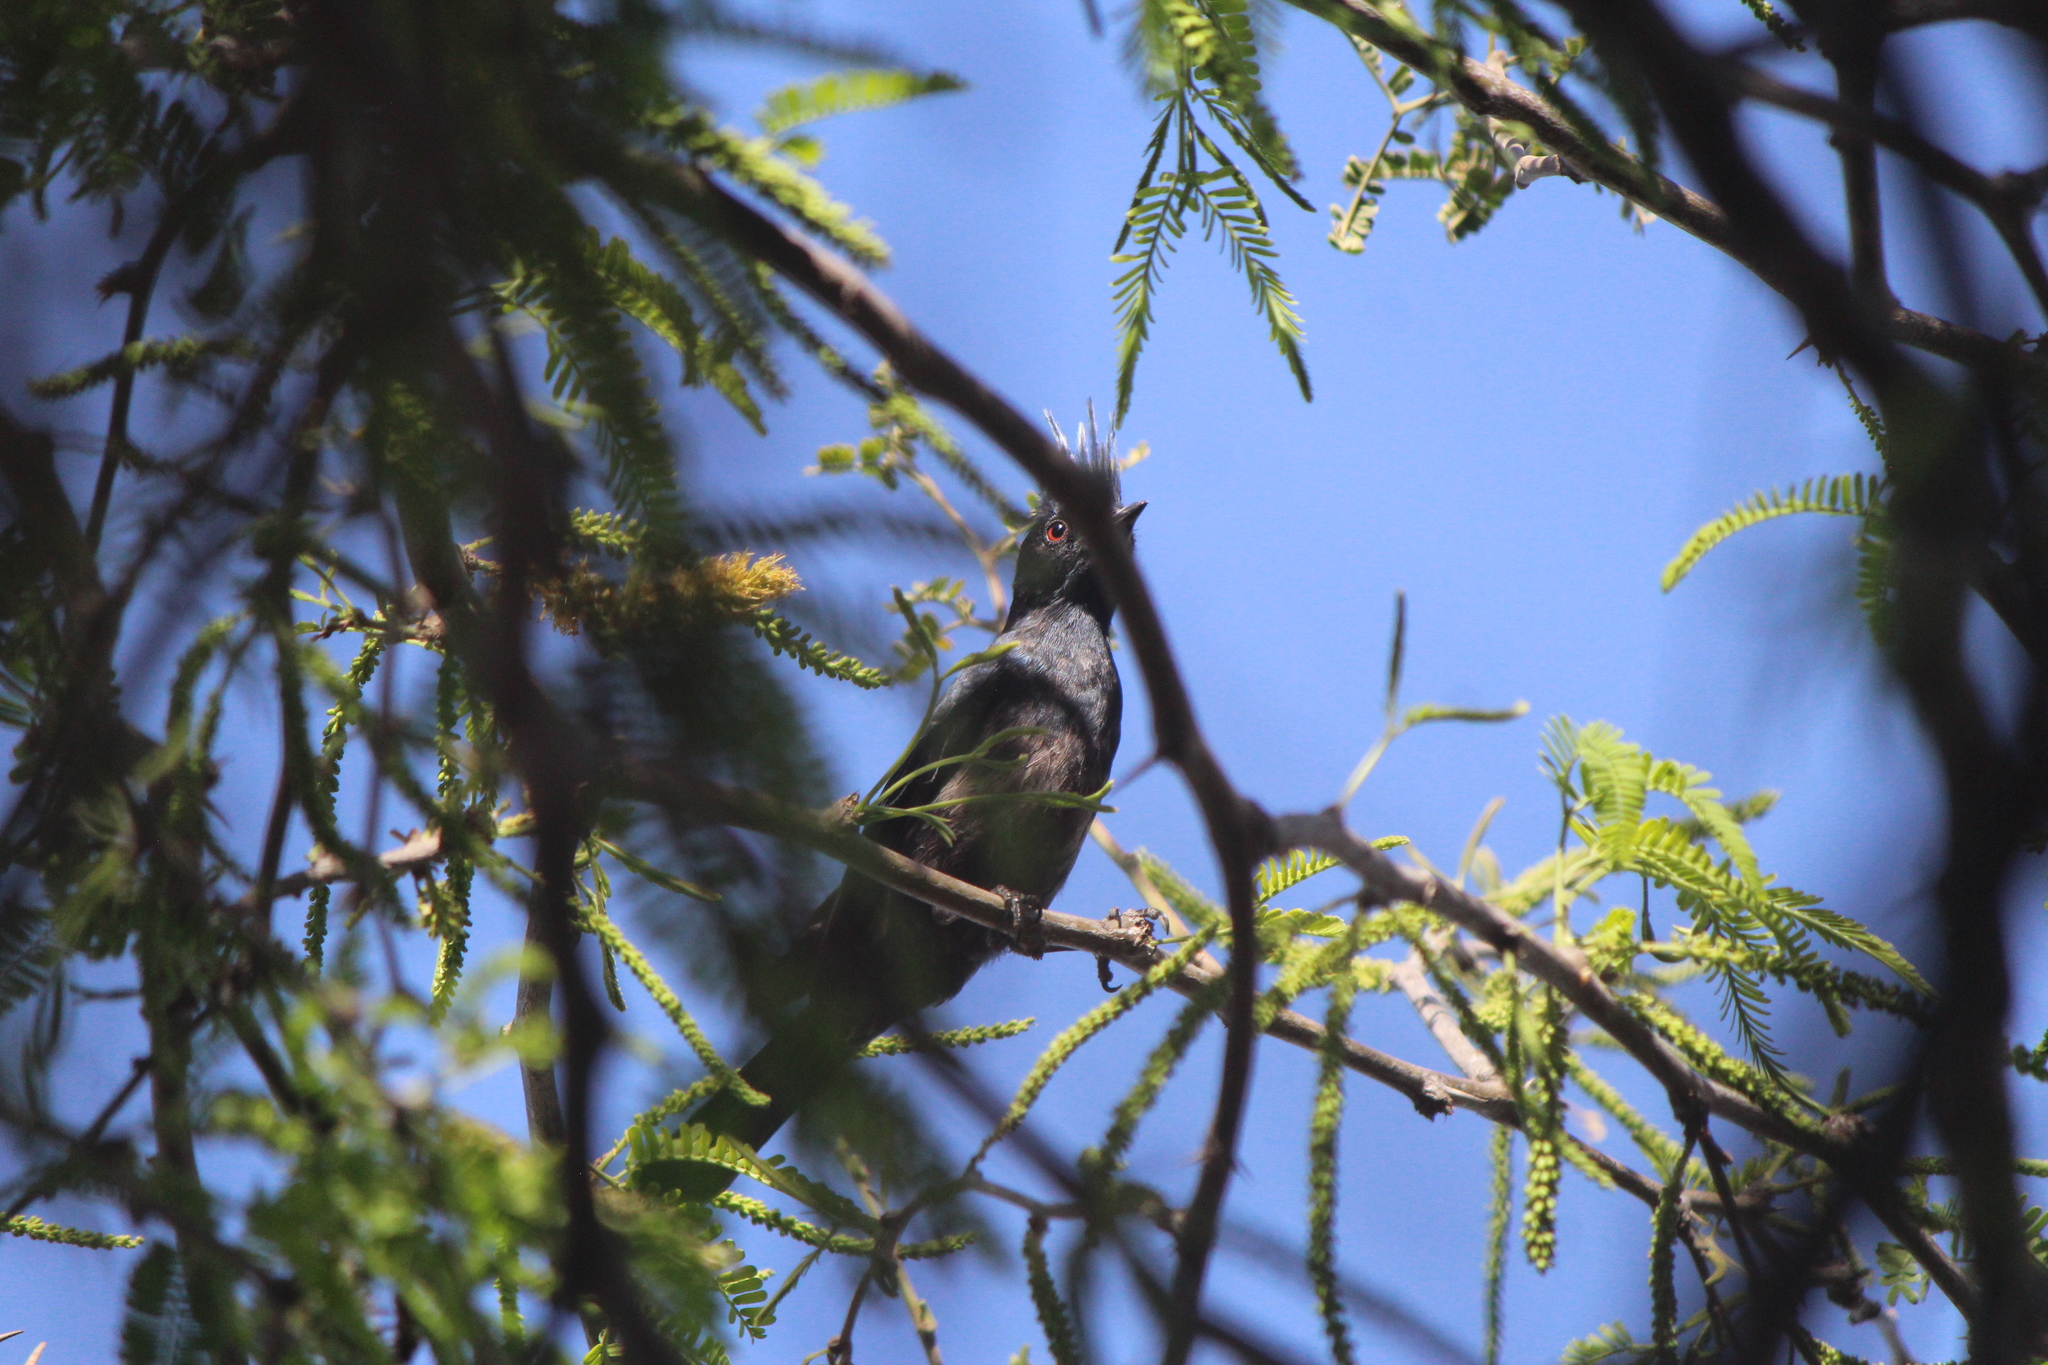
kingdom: Animalia
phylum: Chordata
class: Aves
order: Passeriformes
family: Ptilogonatidae
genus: Phainopepla
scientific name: Phainopepla nitens
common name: Phainopepla
